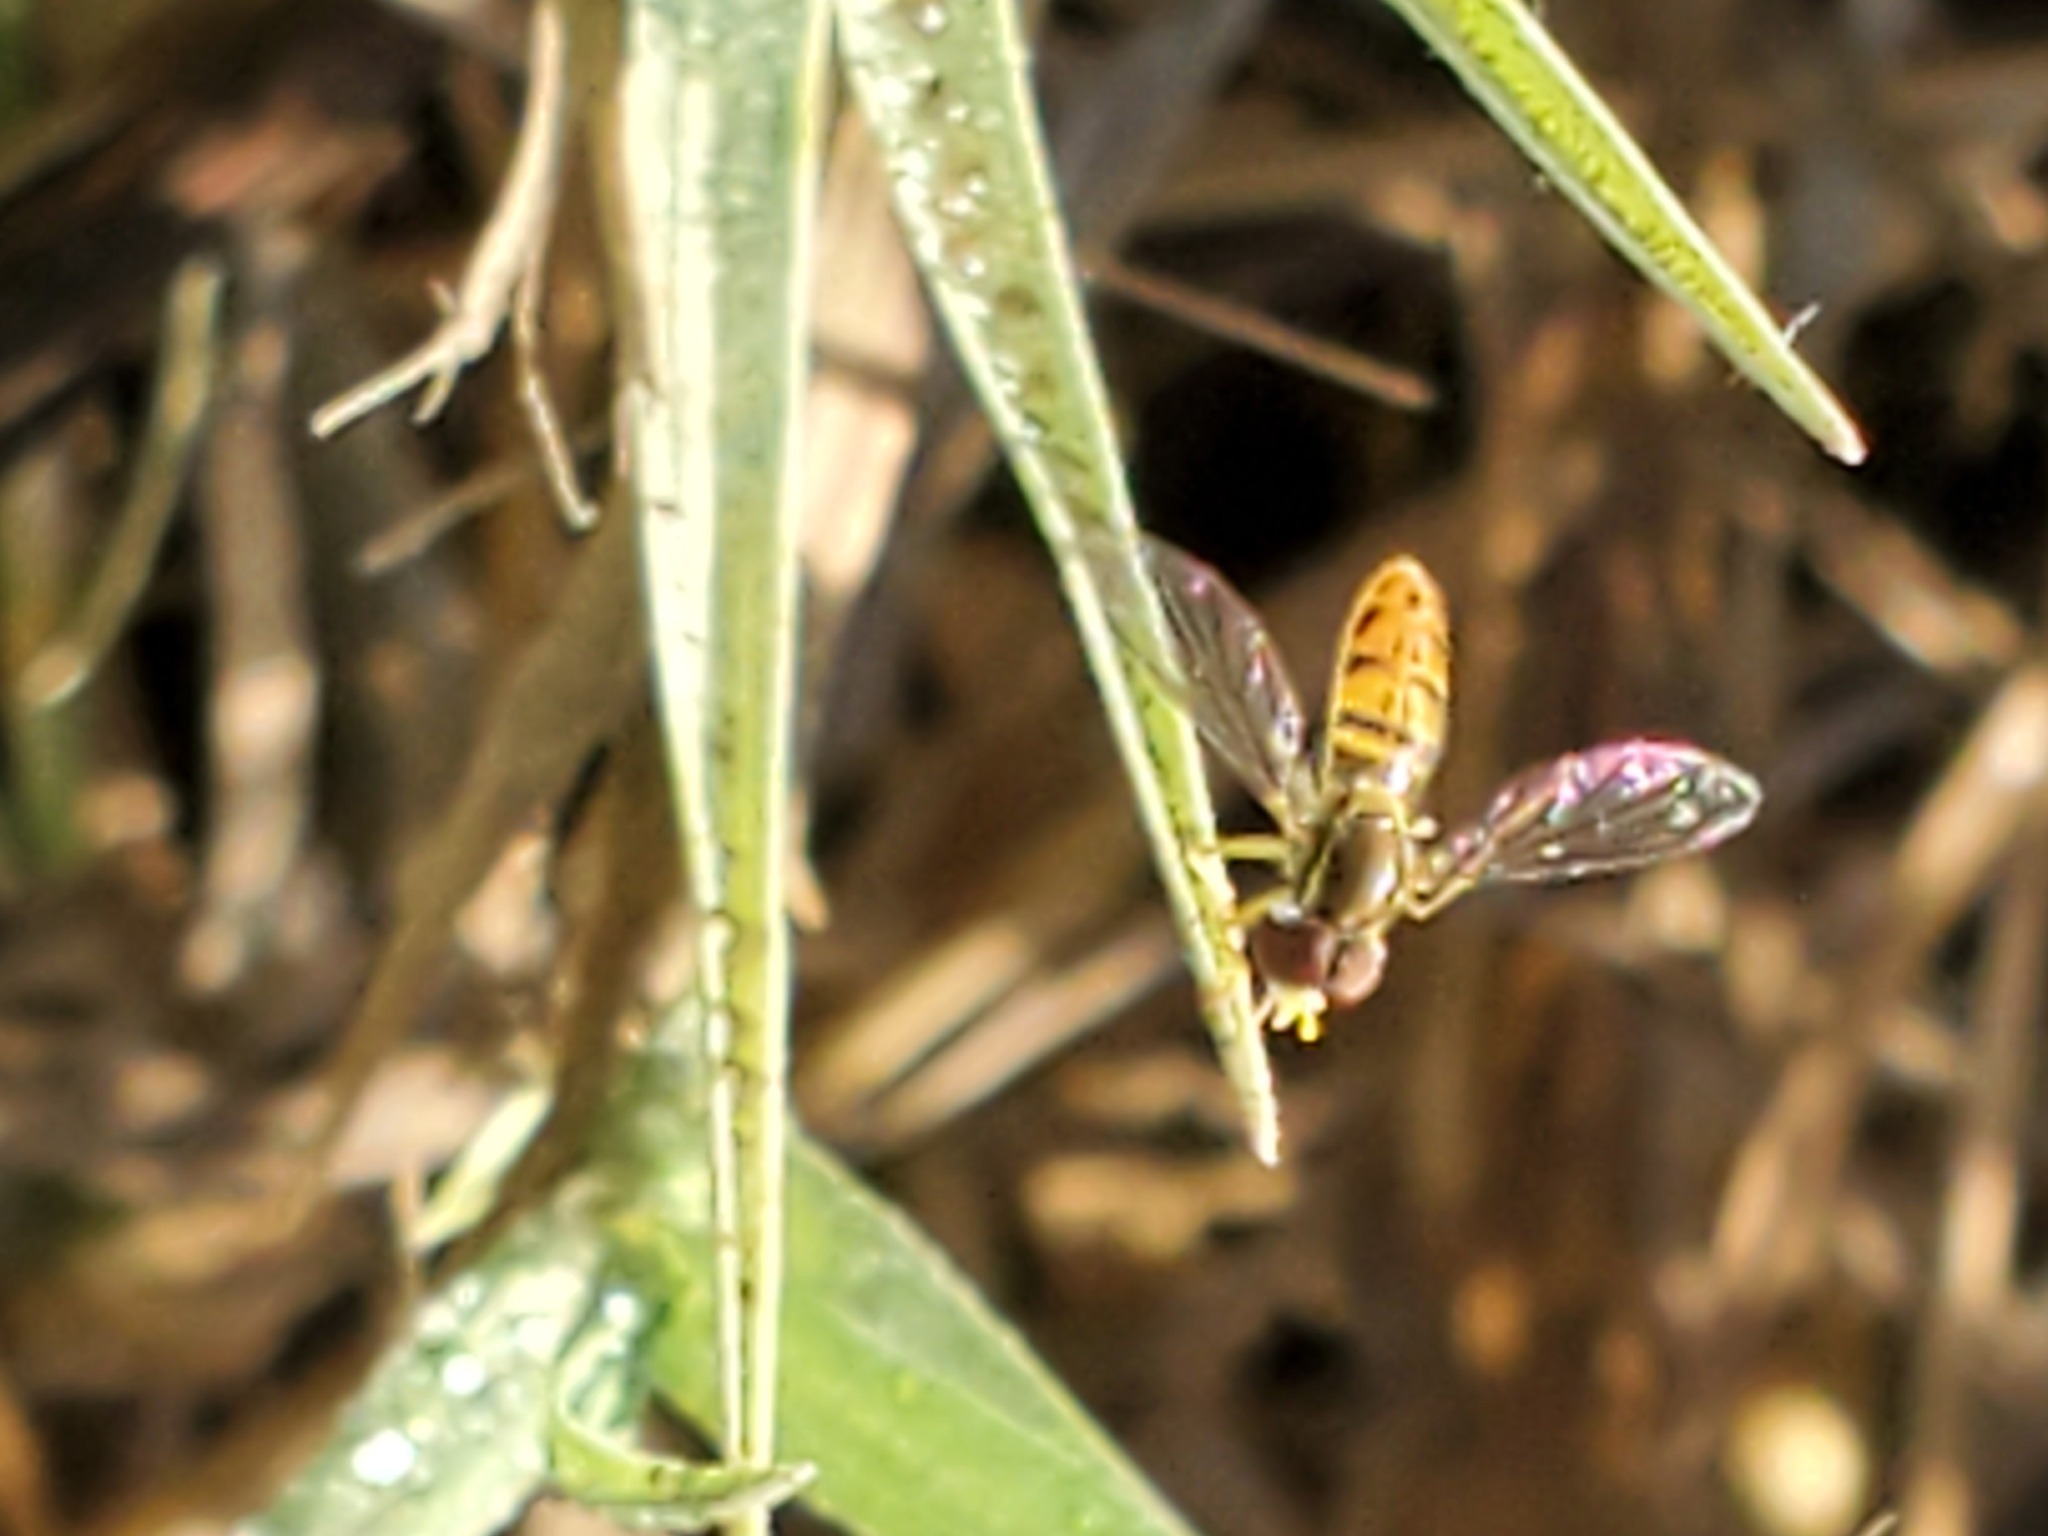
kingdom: Animalia
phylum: Arthropoda
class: Insecta
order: Diptera
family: Syrphidae
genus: Toxomerus
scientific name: Toxomerus marginatus
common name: Syrphid fly
